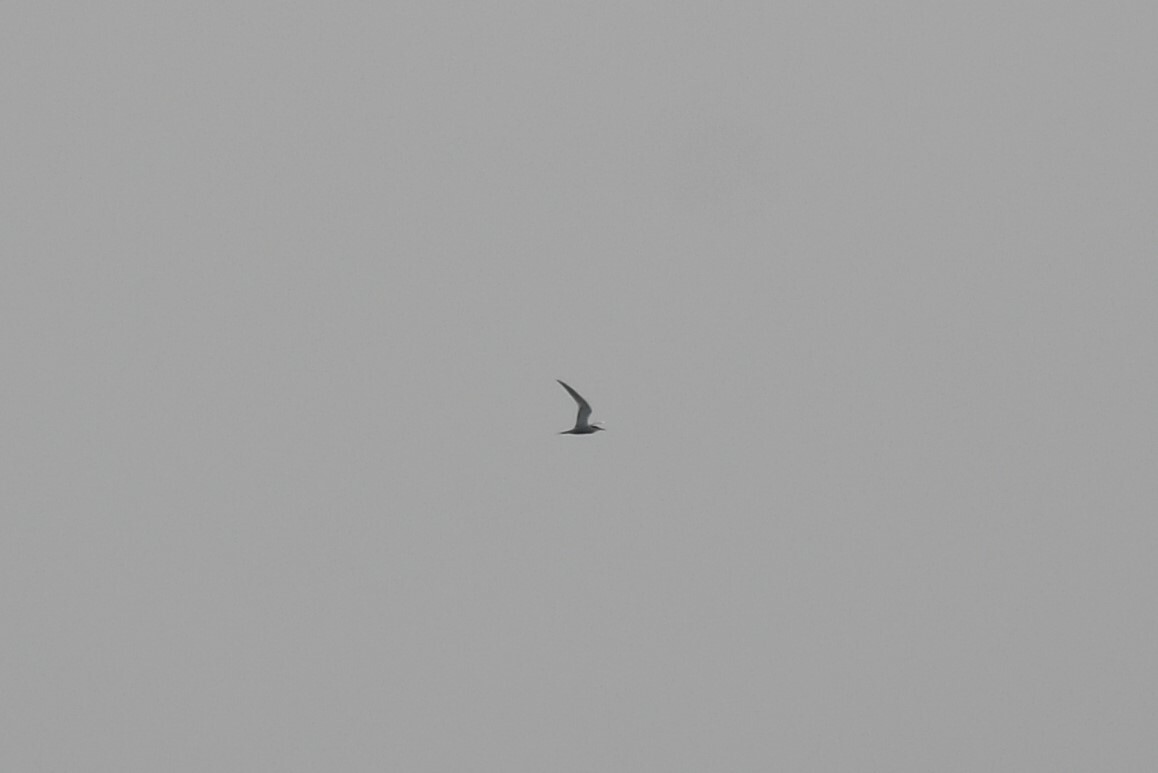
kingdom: Animalia
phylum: Chordata
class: Aves
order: Charadriiformes
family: Laridae
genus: Sterna
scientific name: Sterna hirundo
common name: Common tern
